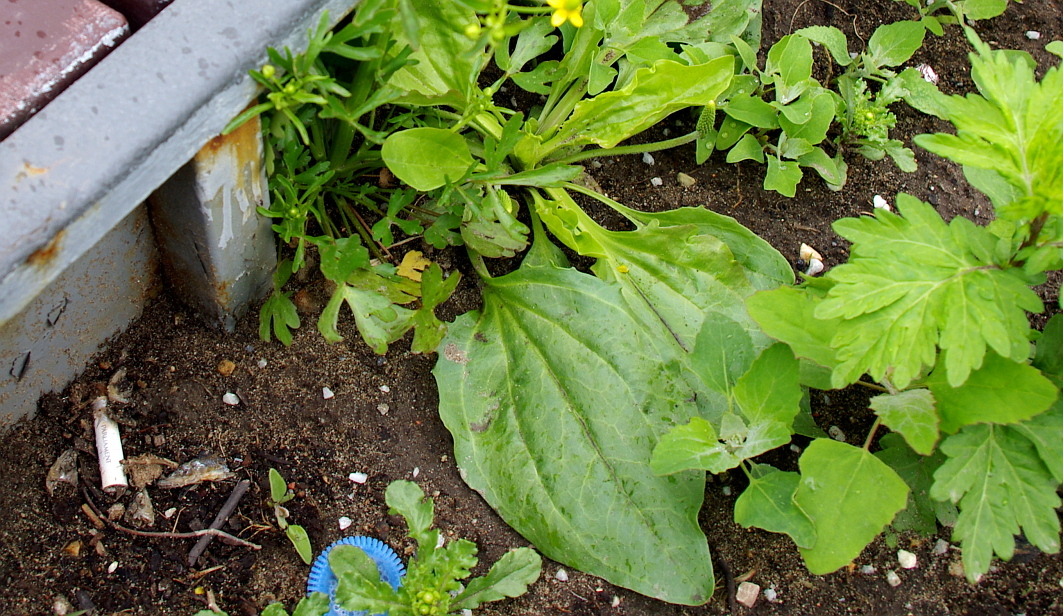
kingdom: Plantae
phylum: Tracheophyta
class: Magnoliopsida
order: Lamiales
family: Plantaginaceae
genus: Plantago
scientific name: Plantago major
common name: Common plantain
